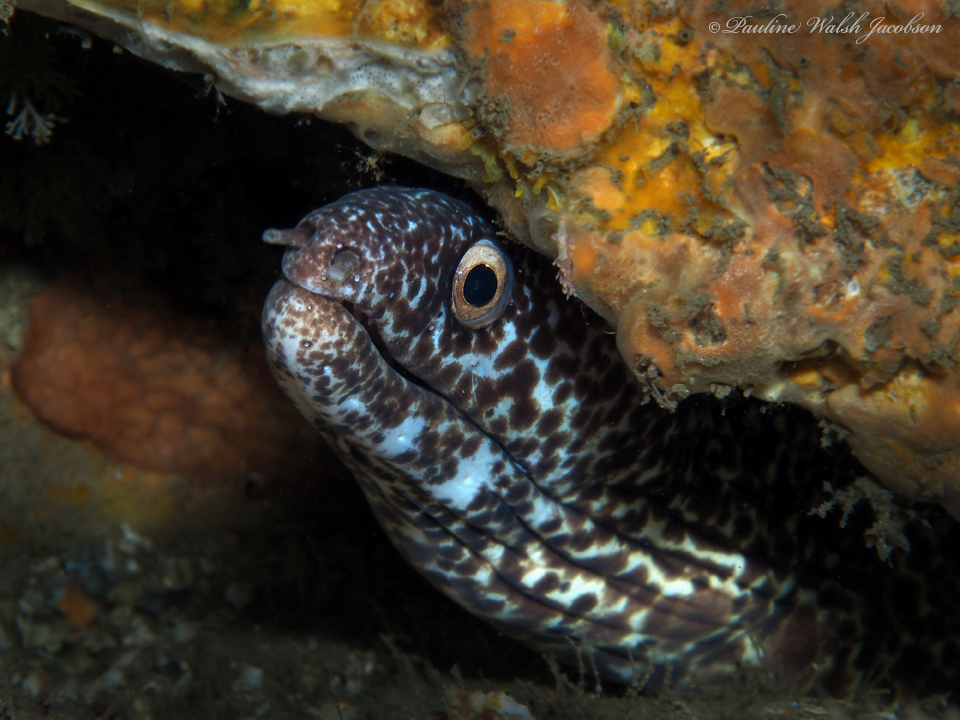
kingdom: Animalia
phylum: Chordata
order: Anguilliformes
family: Muraenidae
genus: Gymnothorax
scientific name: Gymnothorax moringa
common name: Spotted moray
